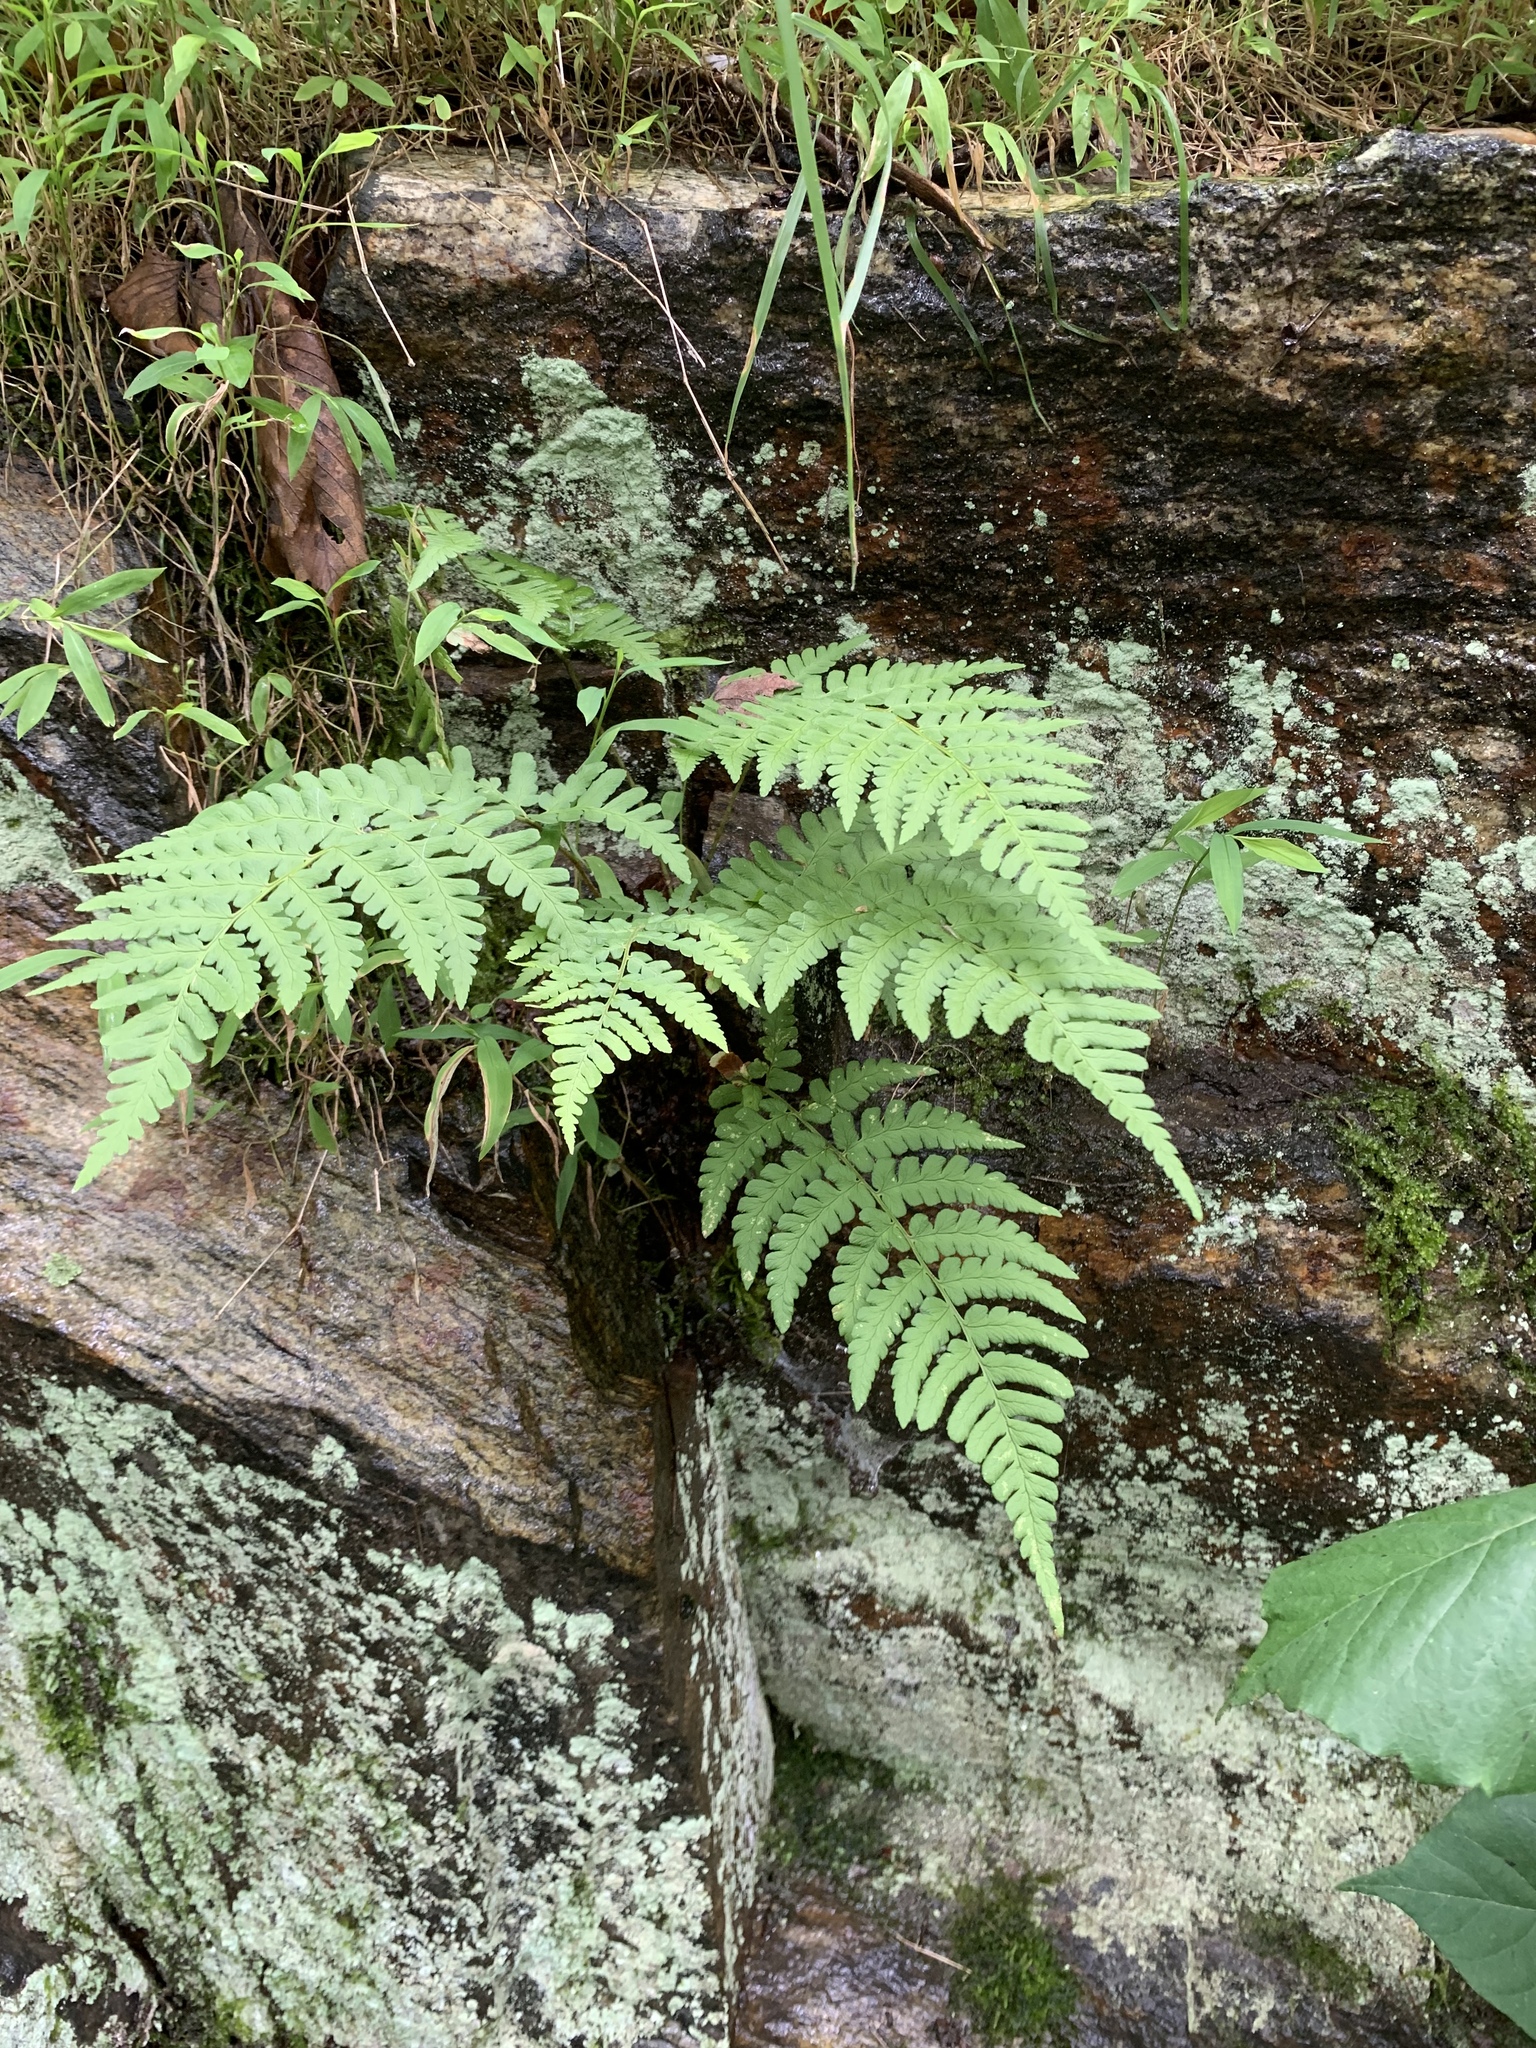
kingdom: Plantae
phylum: Tracheophyta
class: Polypodiopsida
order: Polypodiales
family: Dryopteridaceae
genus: Dryopteris
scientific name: Dryopteris marginalis
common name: Marginal wood fern
